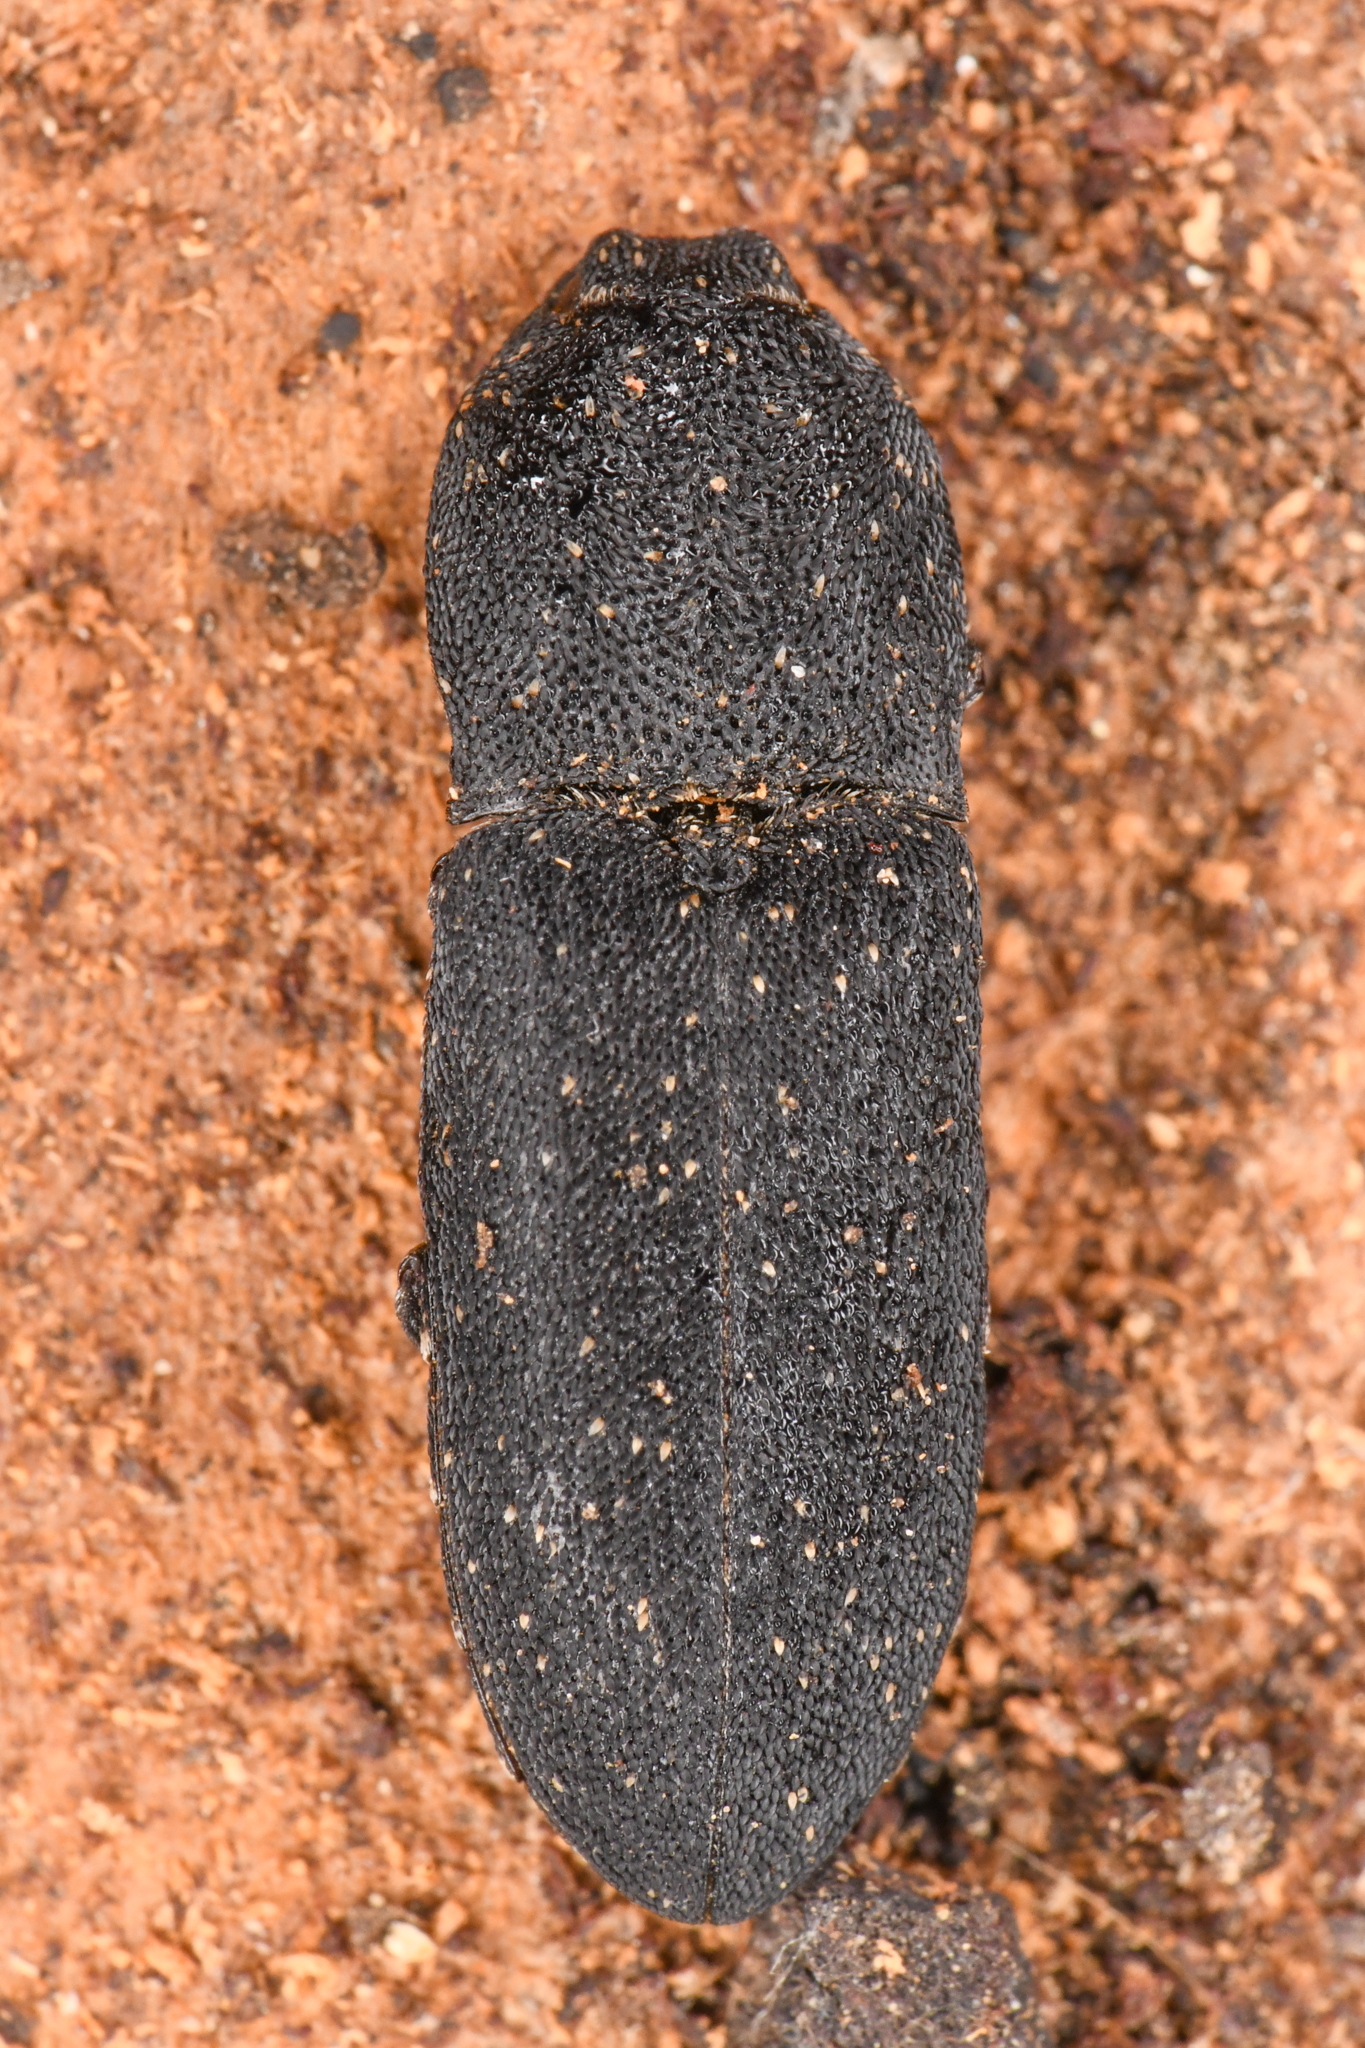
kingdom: Animalia
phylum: Arthropoda
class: Insecta
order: Coleoptera
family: Elateridae
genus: Lacon
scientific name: Lacon sparsus
